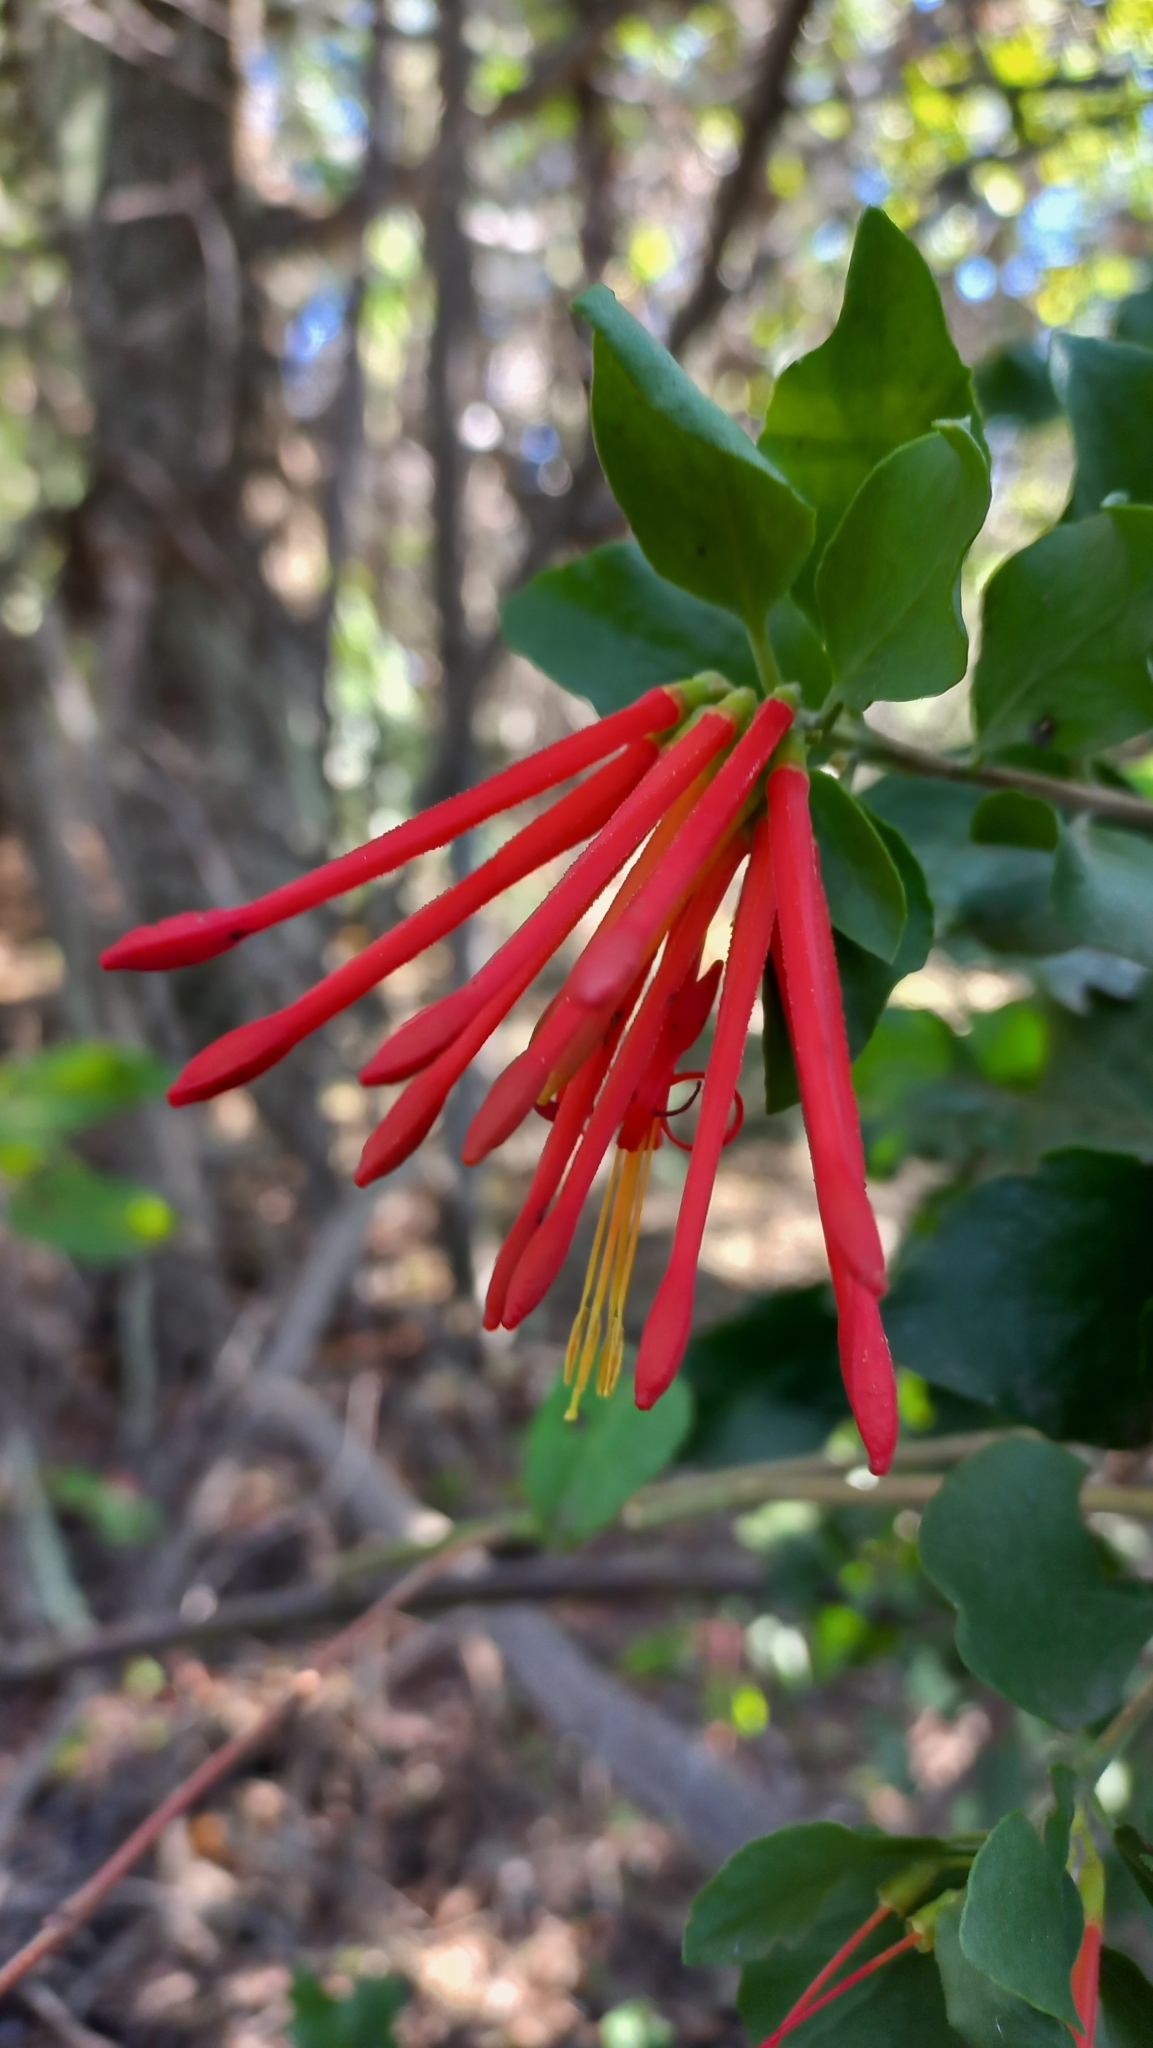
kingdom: Plantae
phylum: Tracheophyta
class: Magnoliopsida
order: Santalales
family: Loranthaceae
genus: Tristerix
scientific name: Tristerix corymbosus
